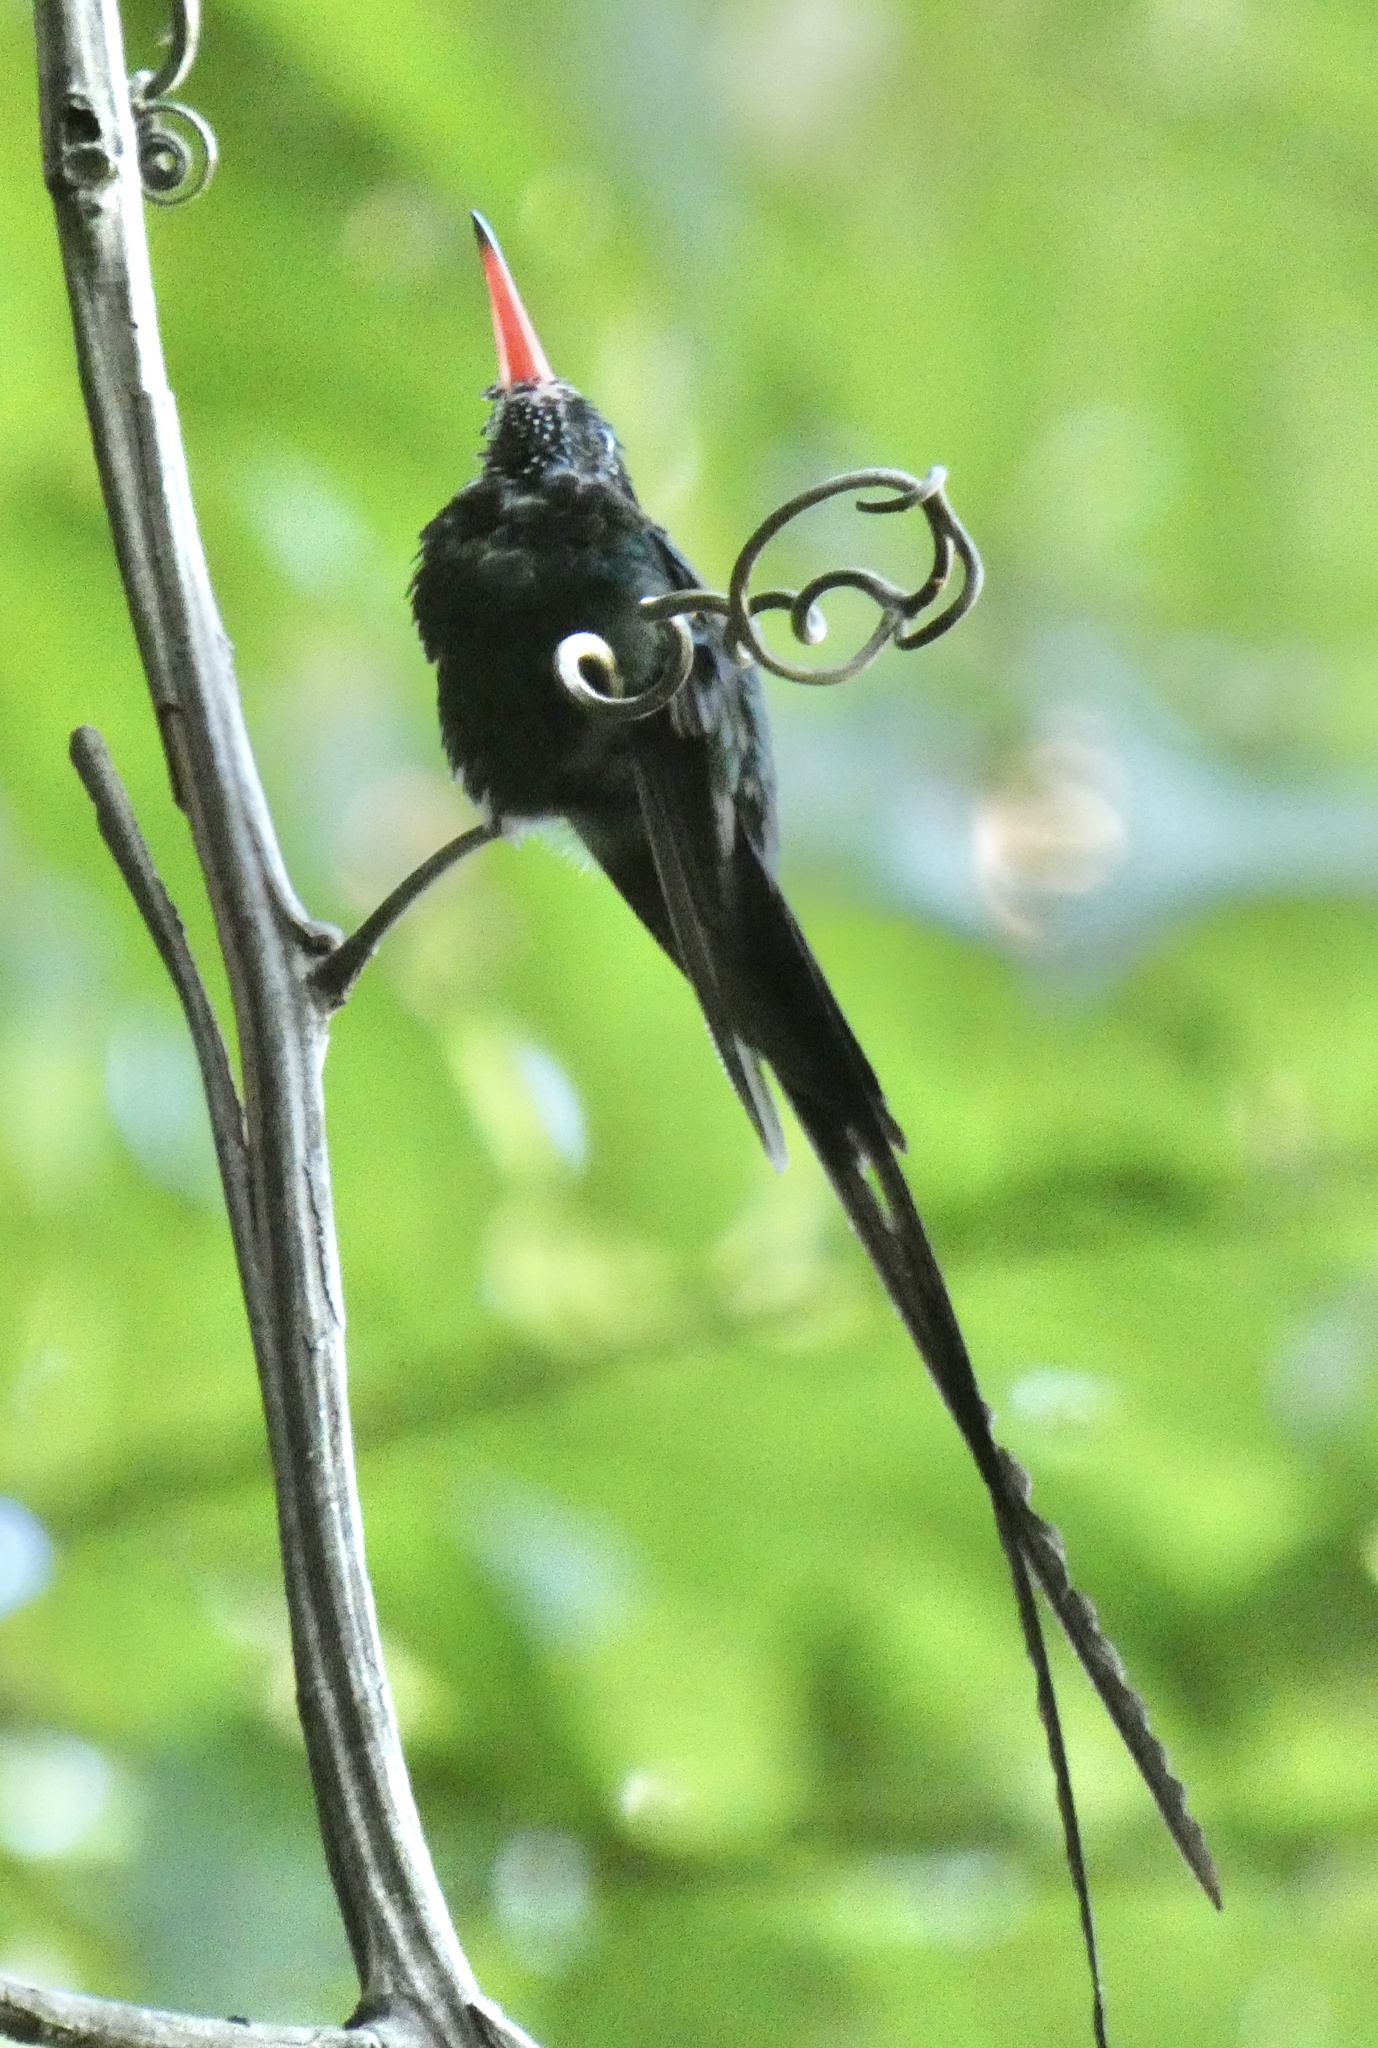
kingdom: Animalia
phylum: Chordata
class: Aves
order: Apodiformes
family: Trochilidae
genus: Trochilus
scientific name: Trochilus polytmus
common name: Red-billed streamertail
